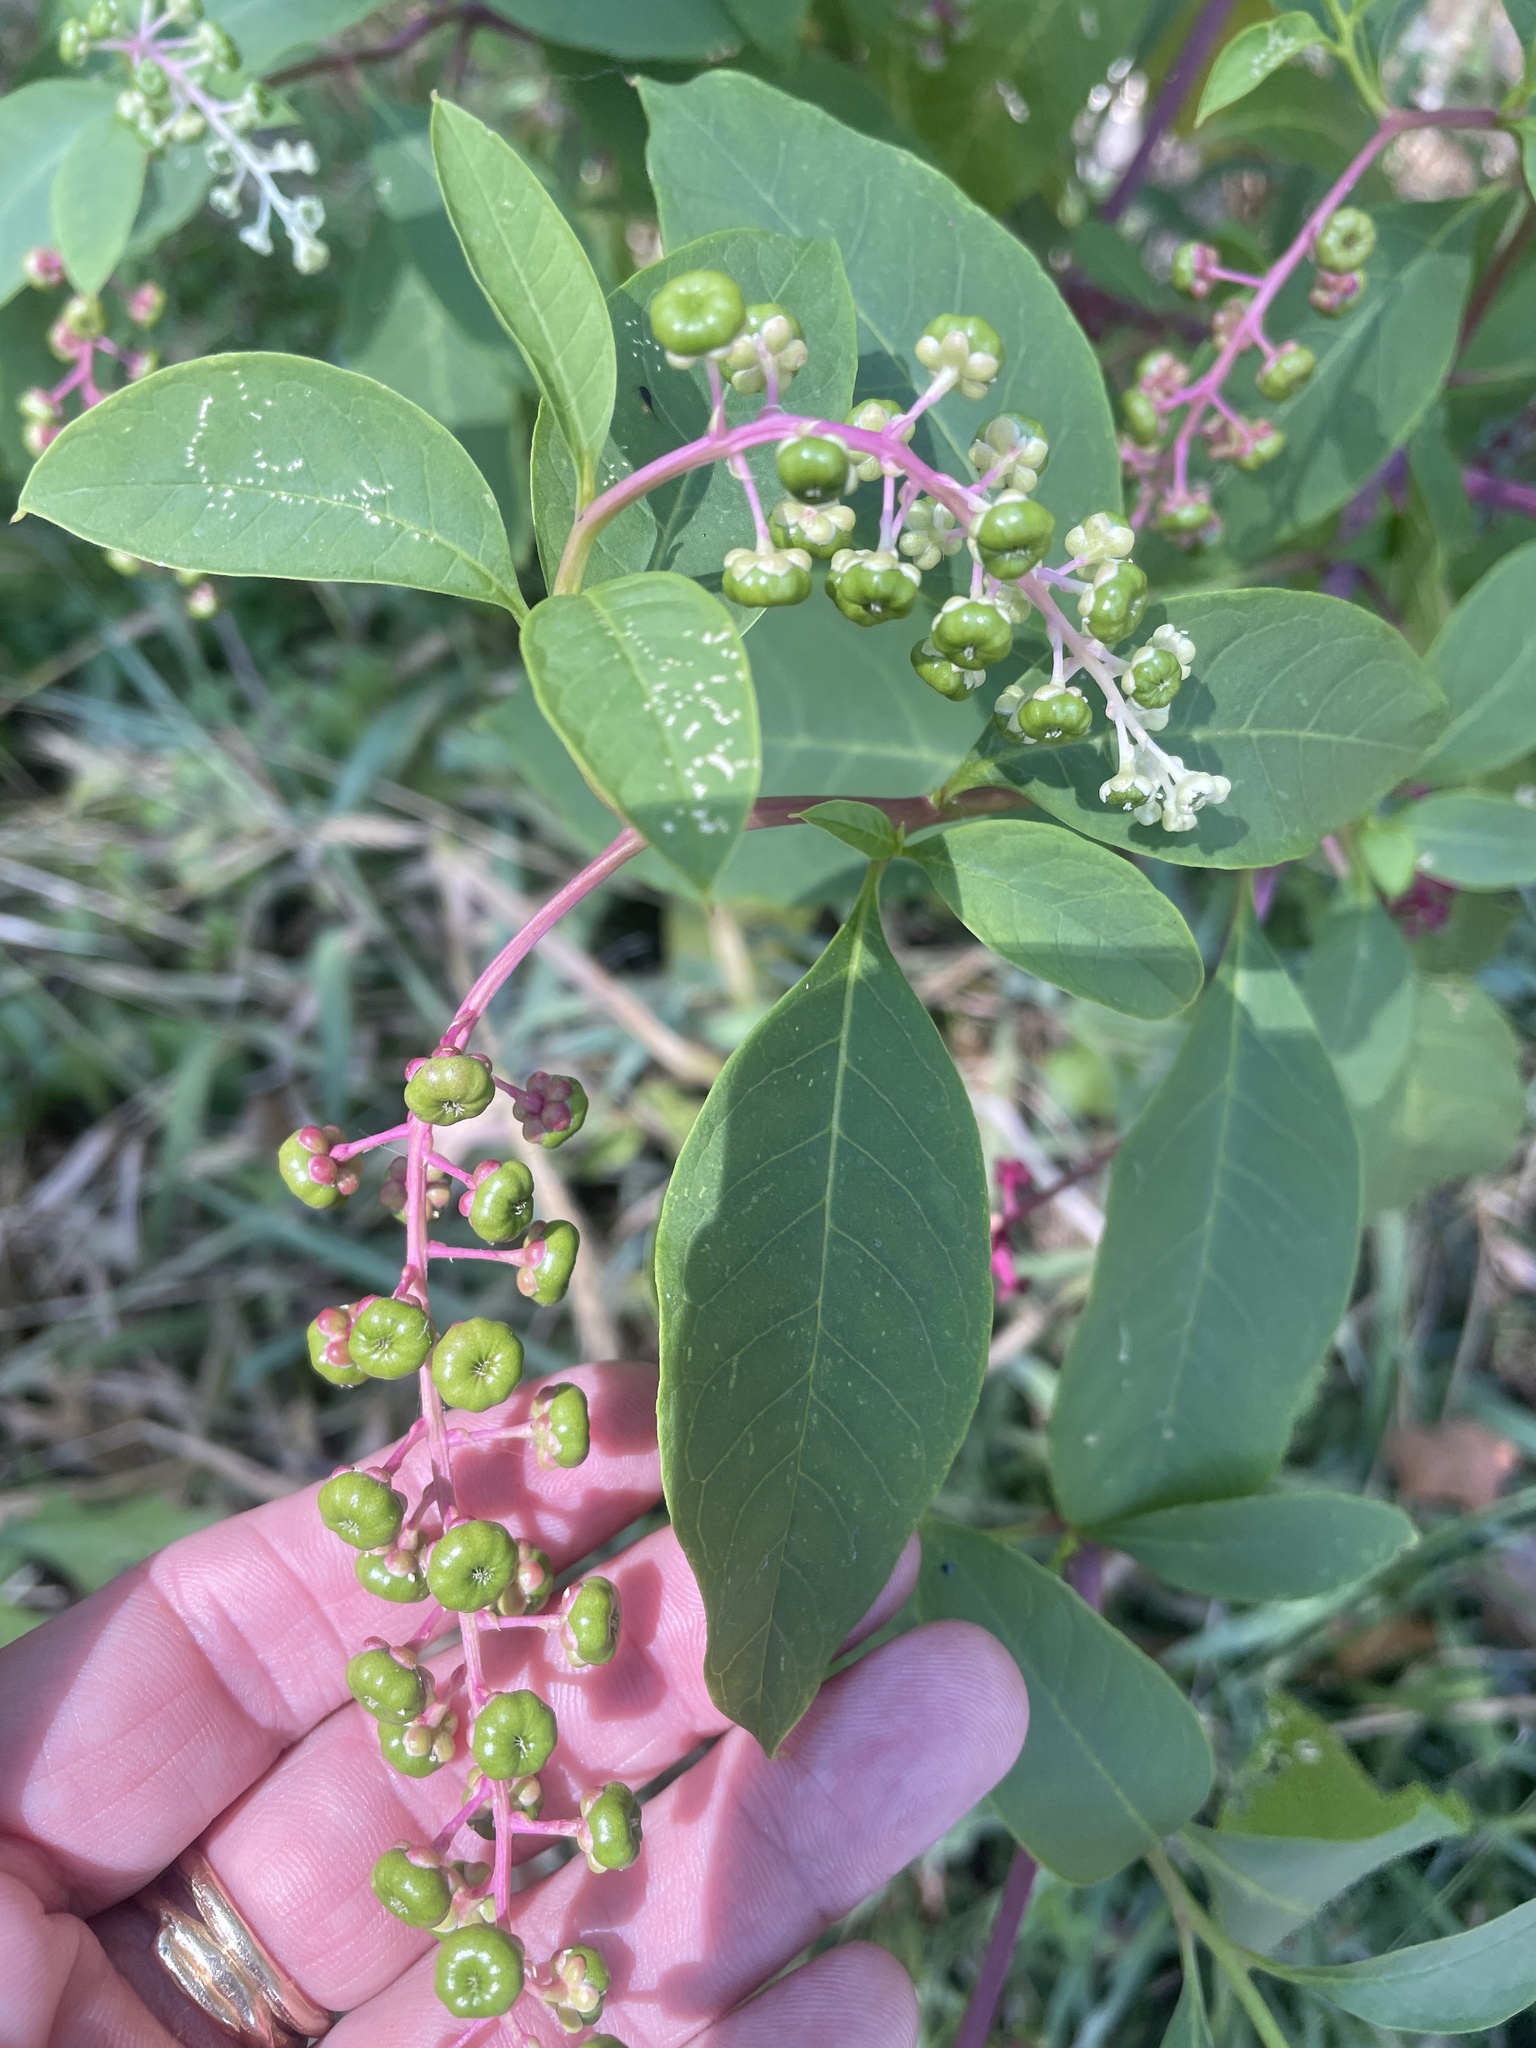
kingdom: Plantae
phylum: Tracheophyta
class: Magnoliopsida
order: Caryophyllales
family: Phytolaccaceae
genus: Phytolacca
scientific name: Phytolacca americana
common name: American pokeweed
